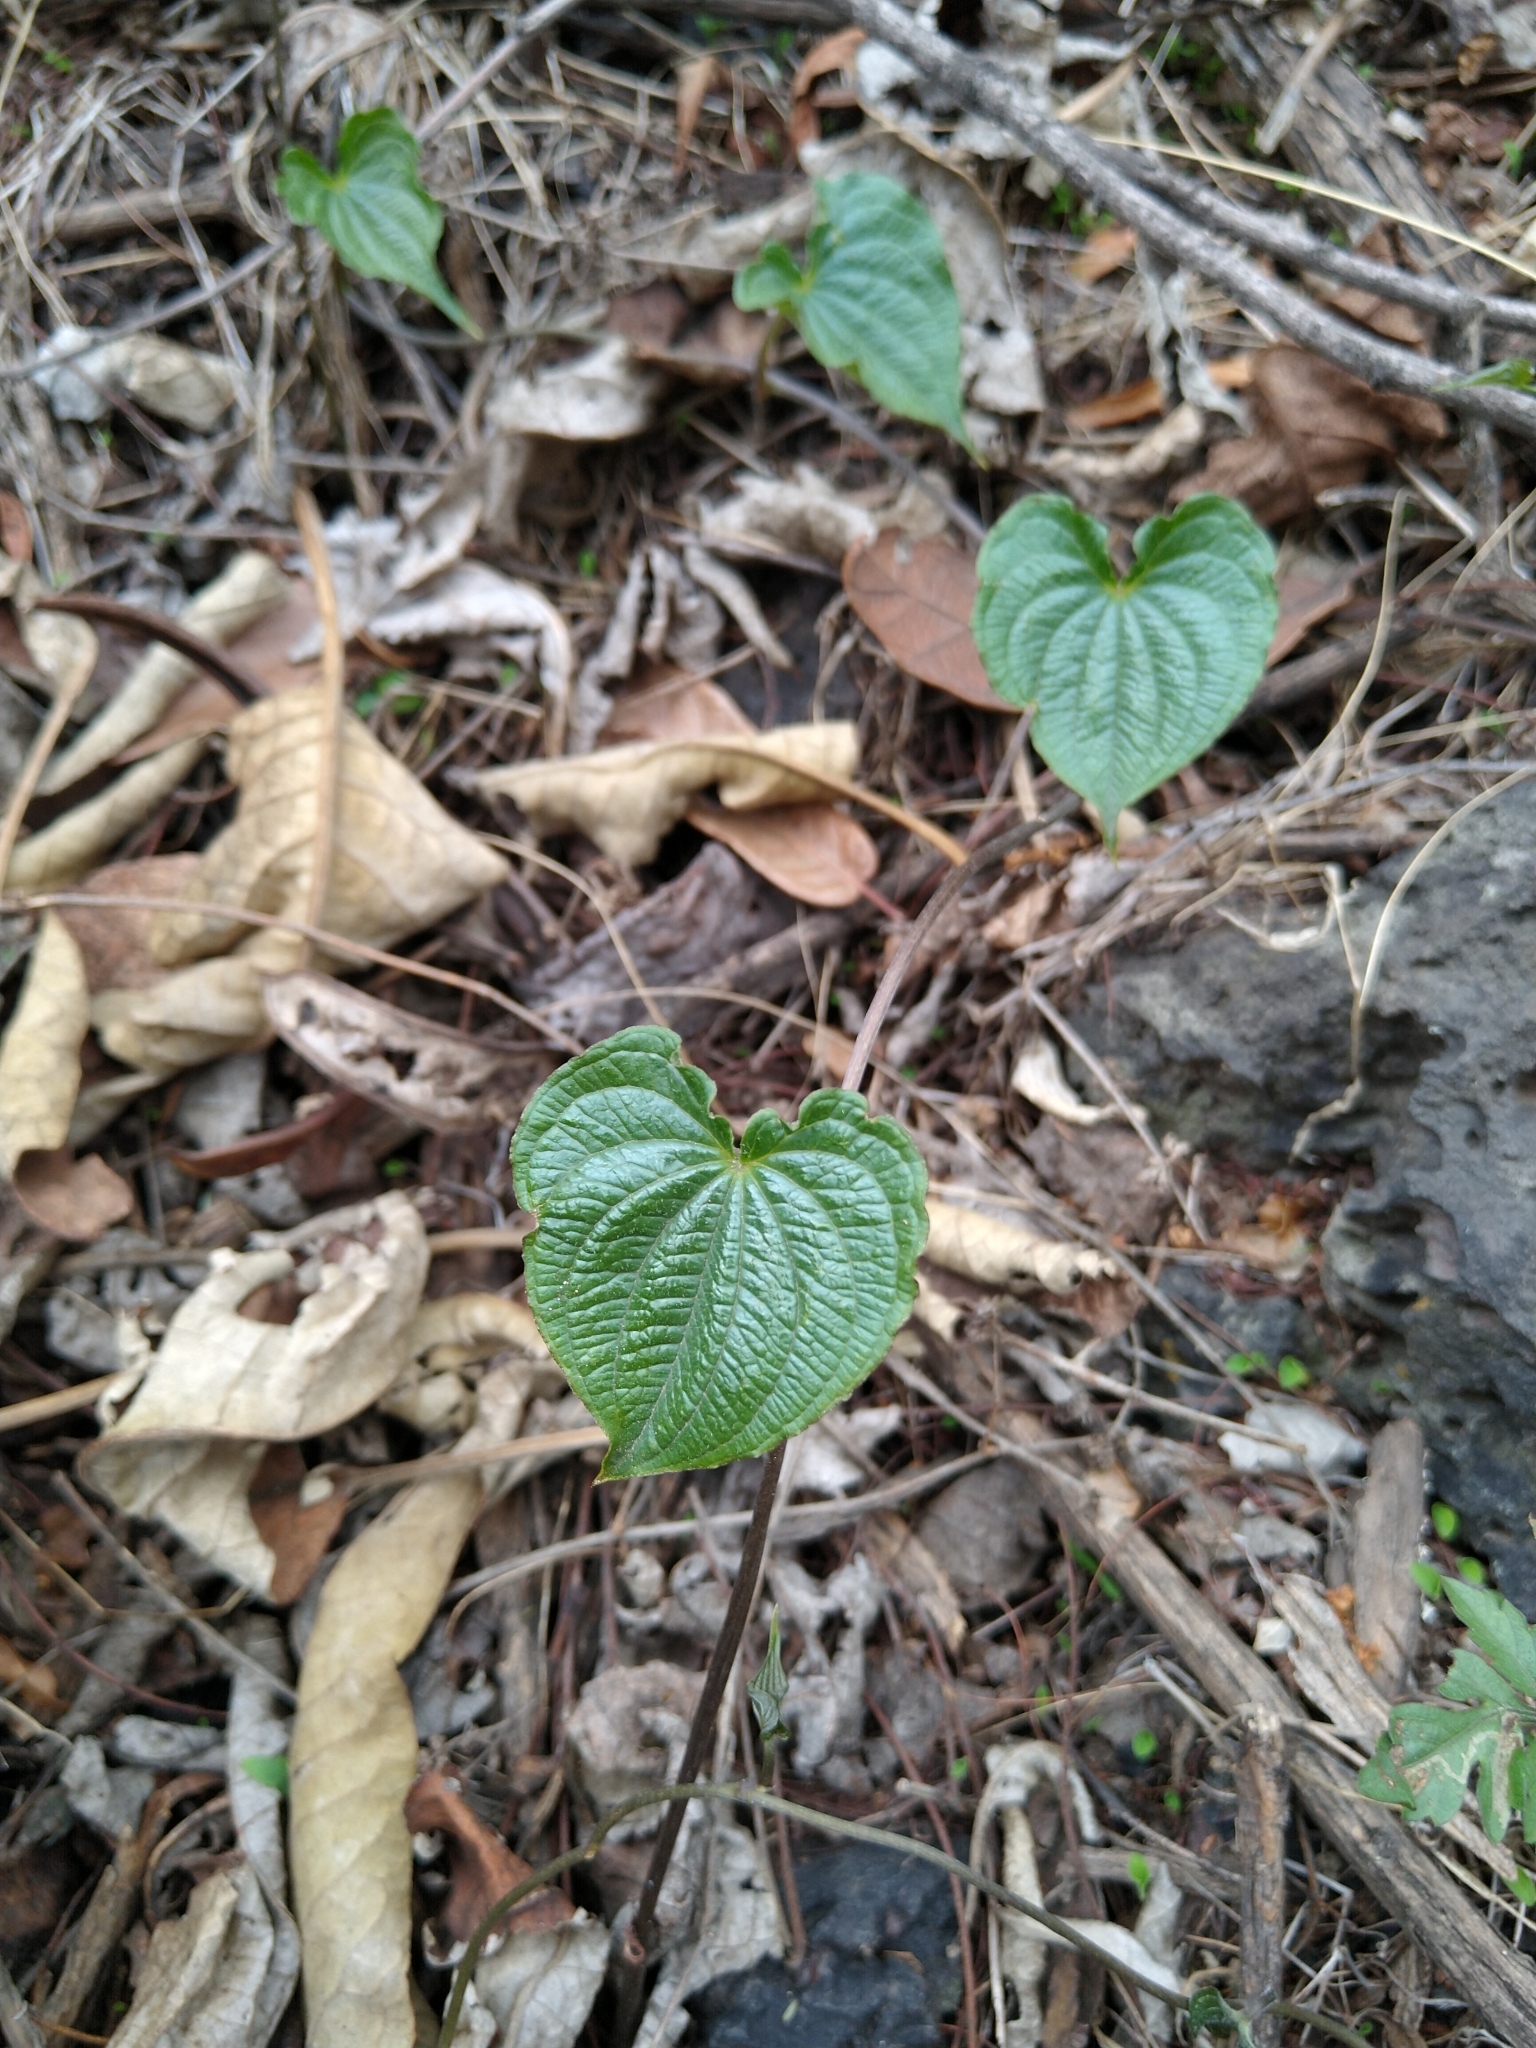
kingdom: Plantae
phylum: Tracheophyta
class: Liliopsida
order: Dioscoreales
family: Dioscoreaceae
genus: Dioscorea
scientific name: Dioscorea galeottiana
